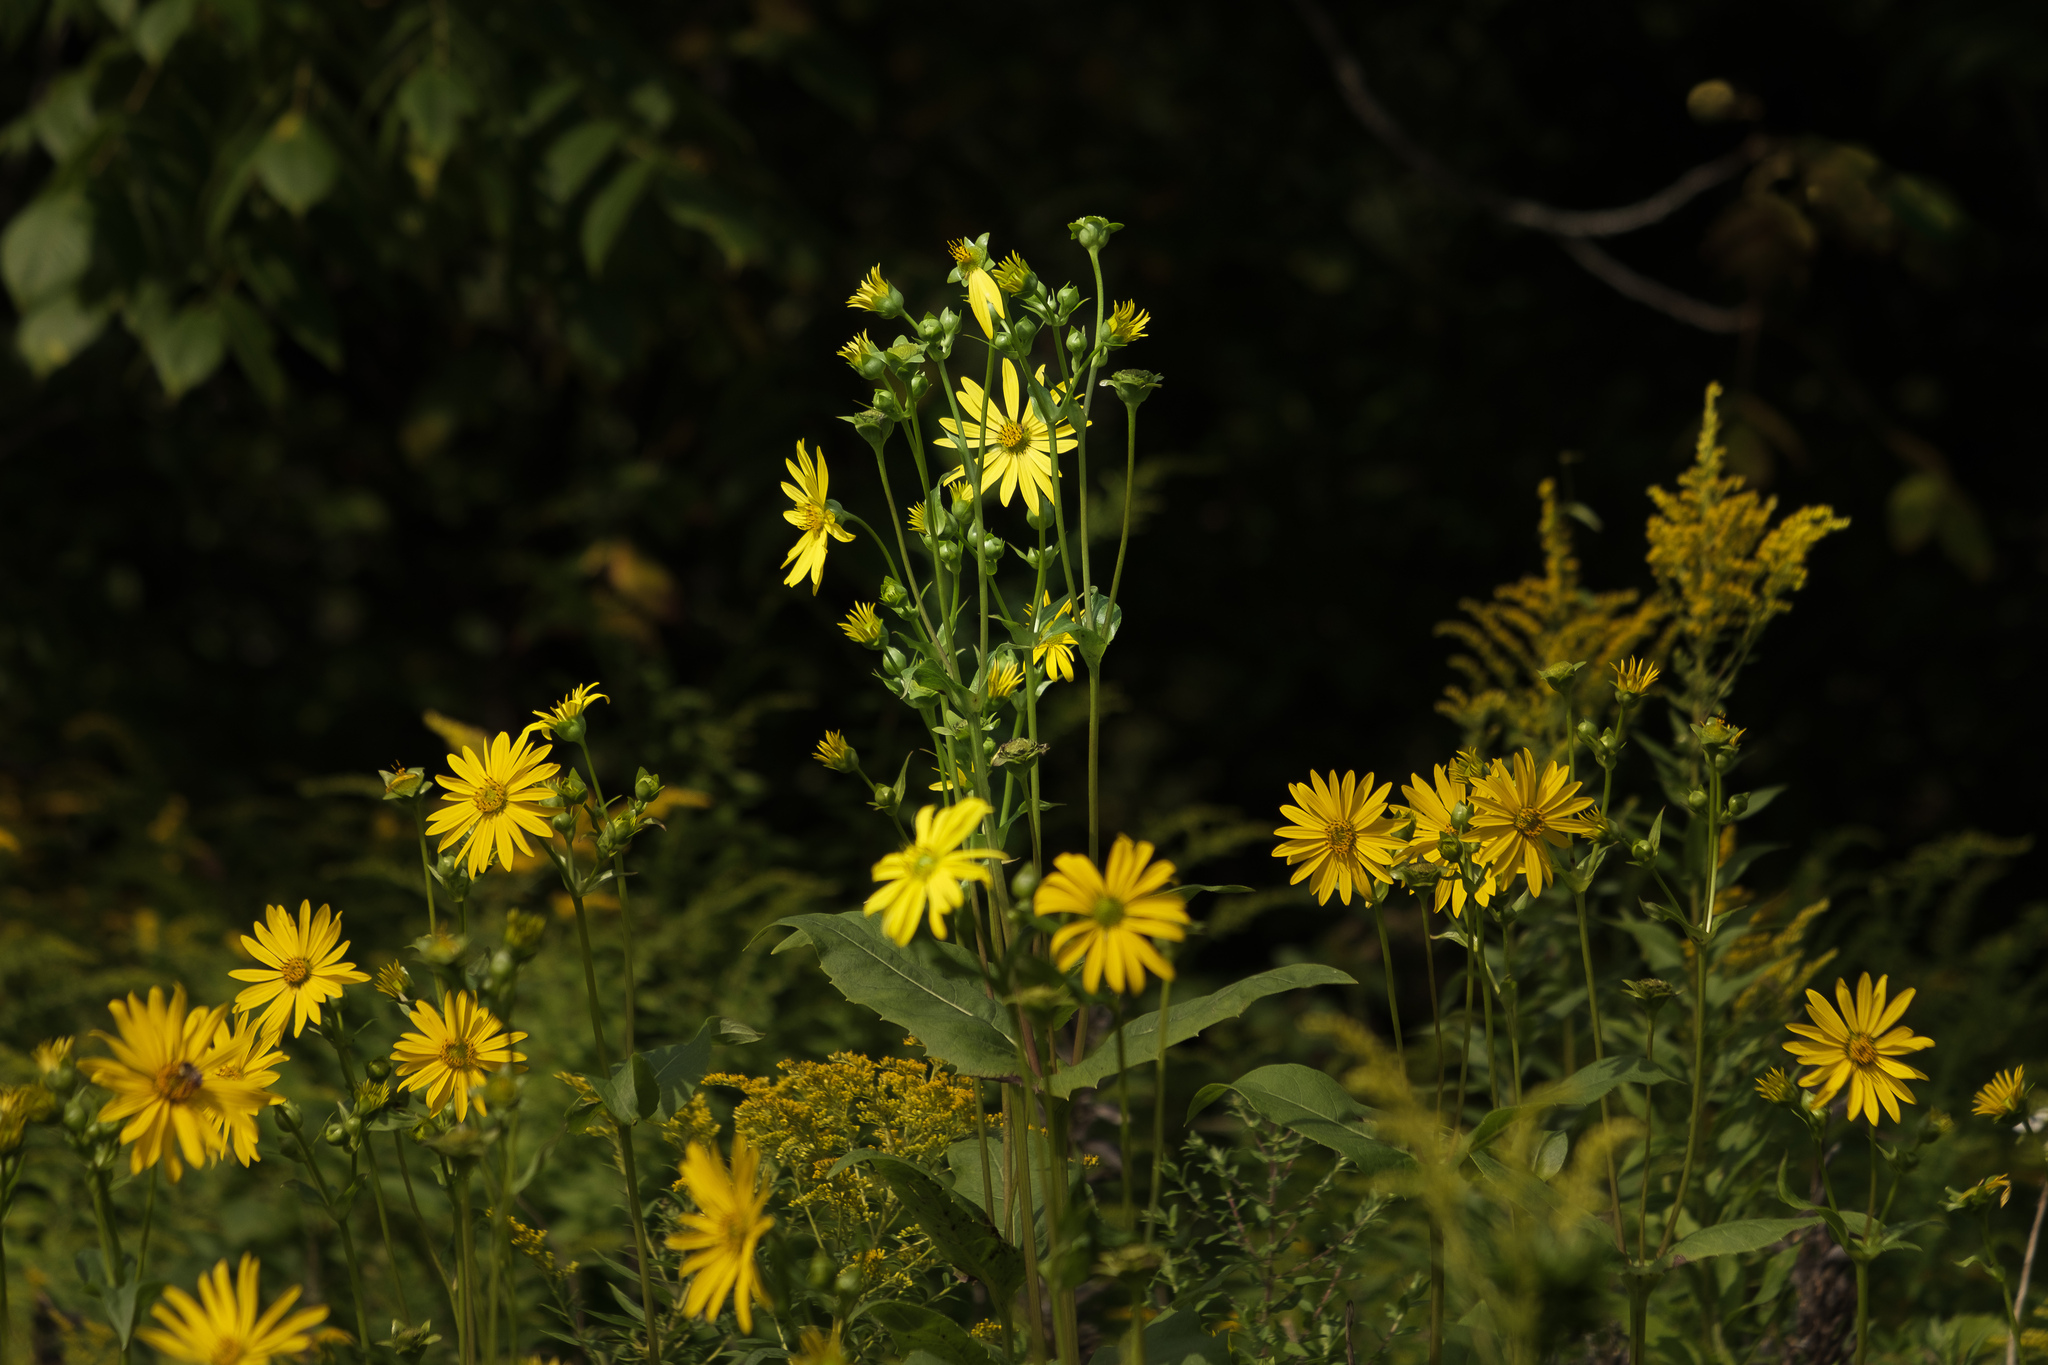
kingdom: Plantae
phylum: Tracheophyta
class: Magnoliopsida
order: Asterales
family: Asteraceae
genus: Silphium
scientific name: Silphium perfoliatum
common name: Cup-plant
